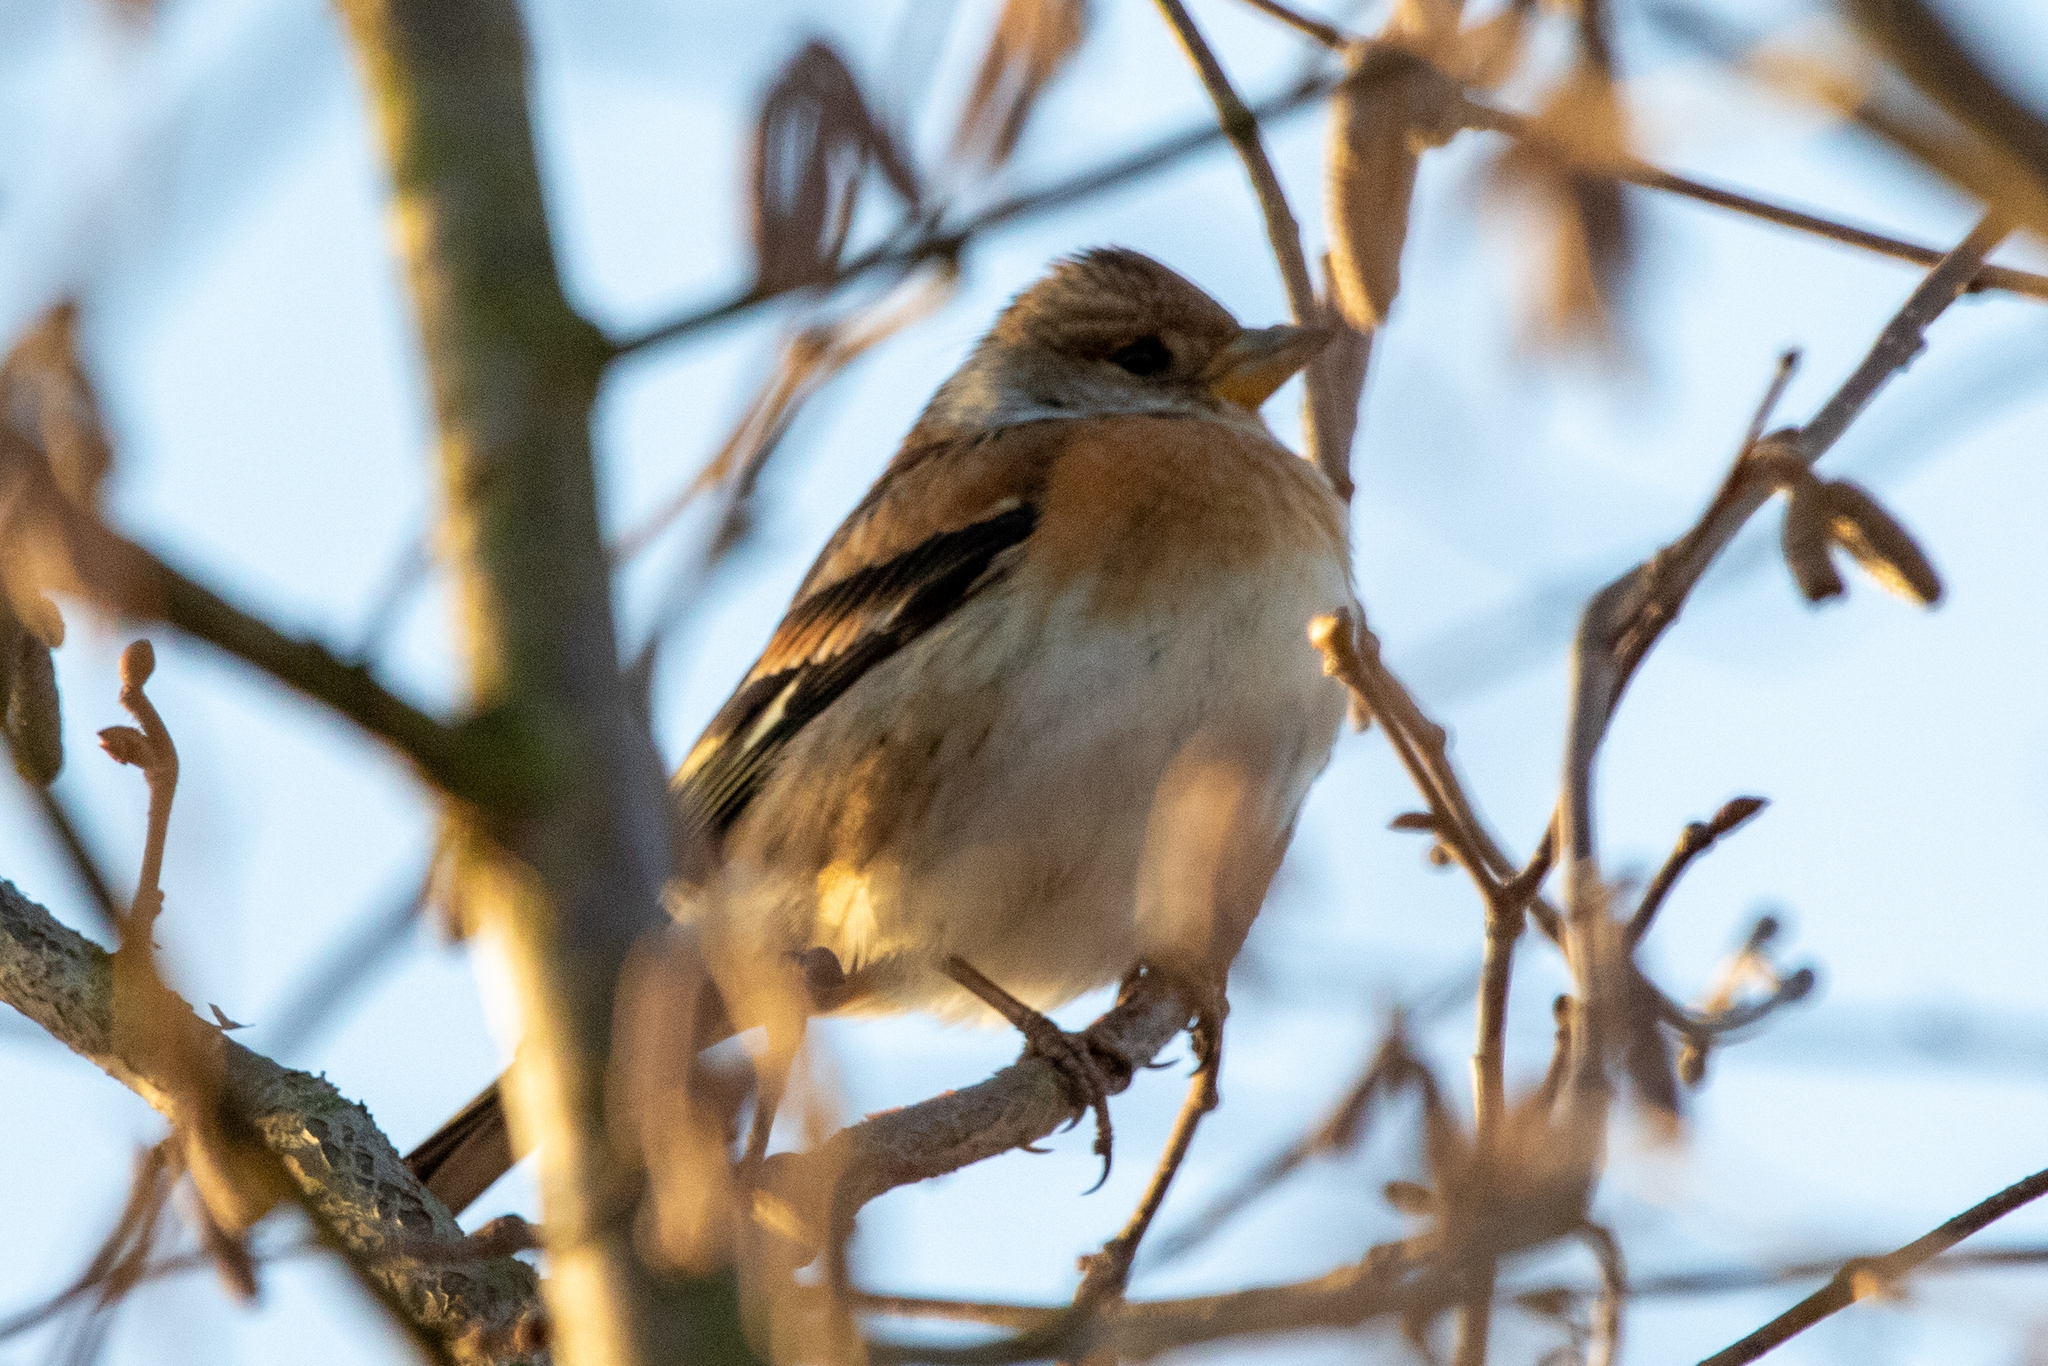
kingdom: Animalia
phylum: Chordata
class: Aves
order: Passeriformes
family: Fringillidae
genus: Fringilla
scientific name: Fringilla montifringilla
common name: Brambling
